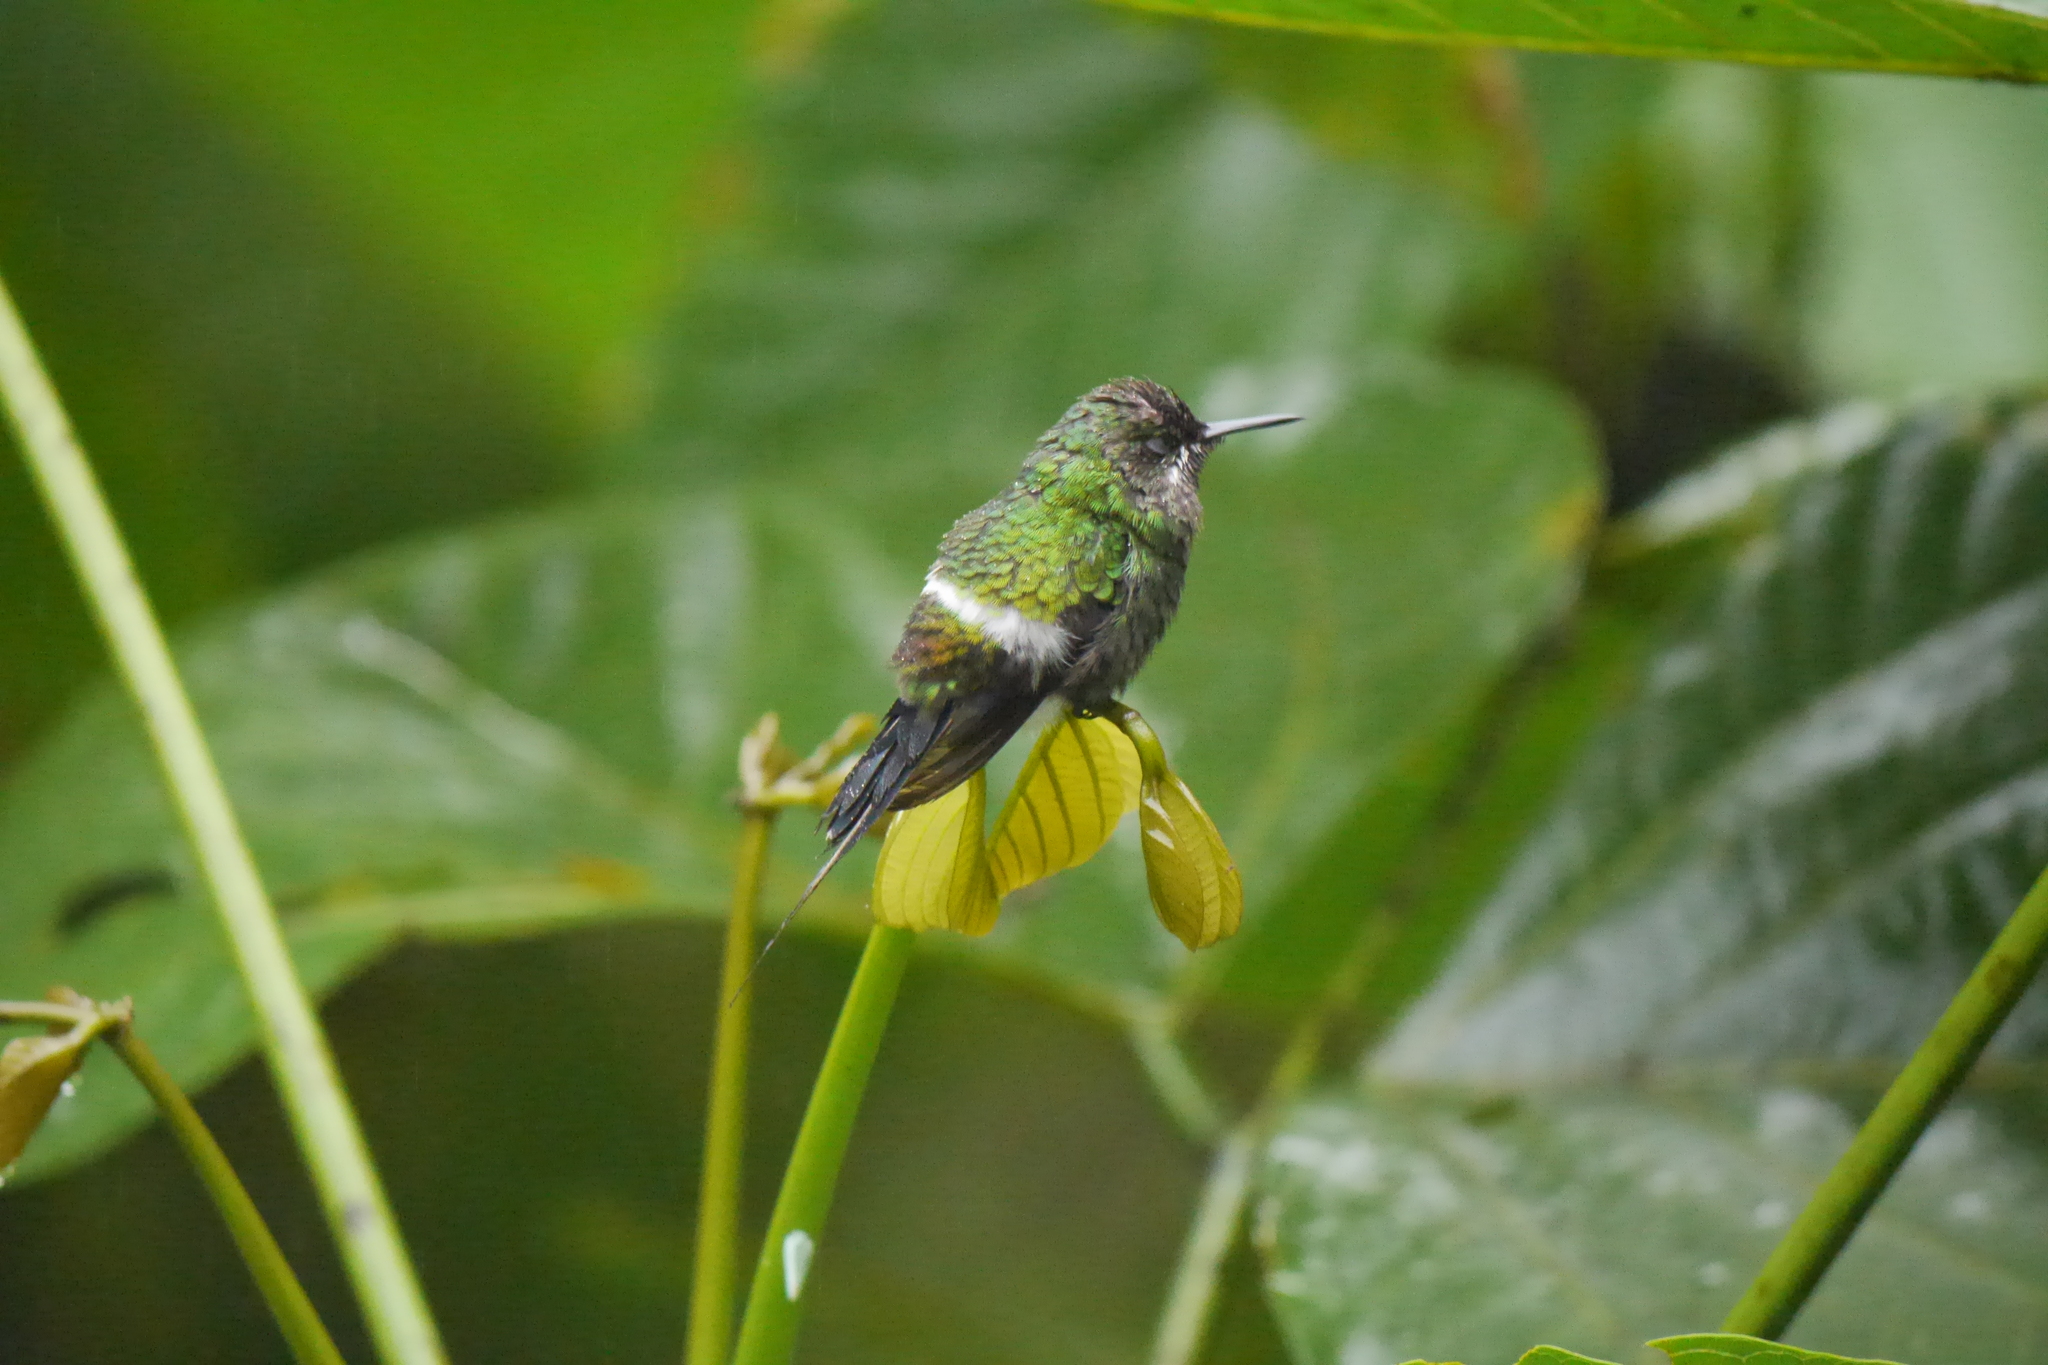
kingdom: Animalia
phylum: Chordata
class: Aves
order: Apodiformes
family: Trochilidae
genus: Discosura
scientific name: Discosura conversii
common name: Green thorntail
